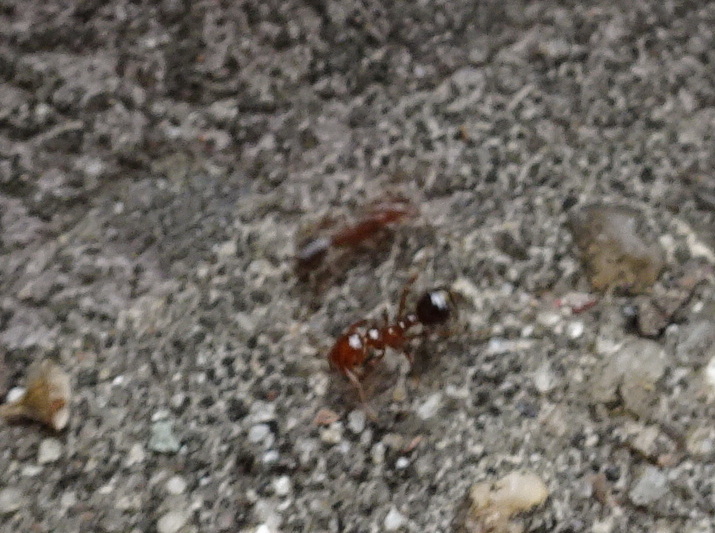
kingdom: Animalia
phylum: Arthropoda
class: Insecta
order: Hymenoptera
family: Formicidae
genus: Solenopsis
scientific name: Solenopsis invicta
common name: Red imported fire ant
